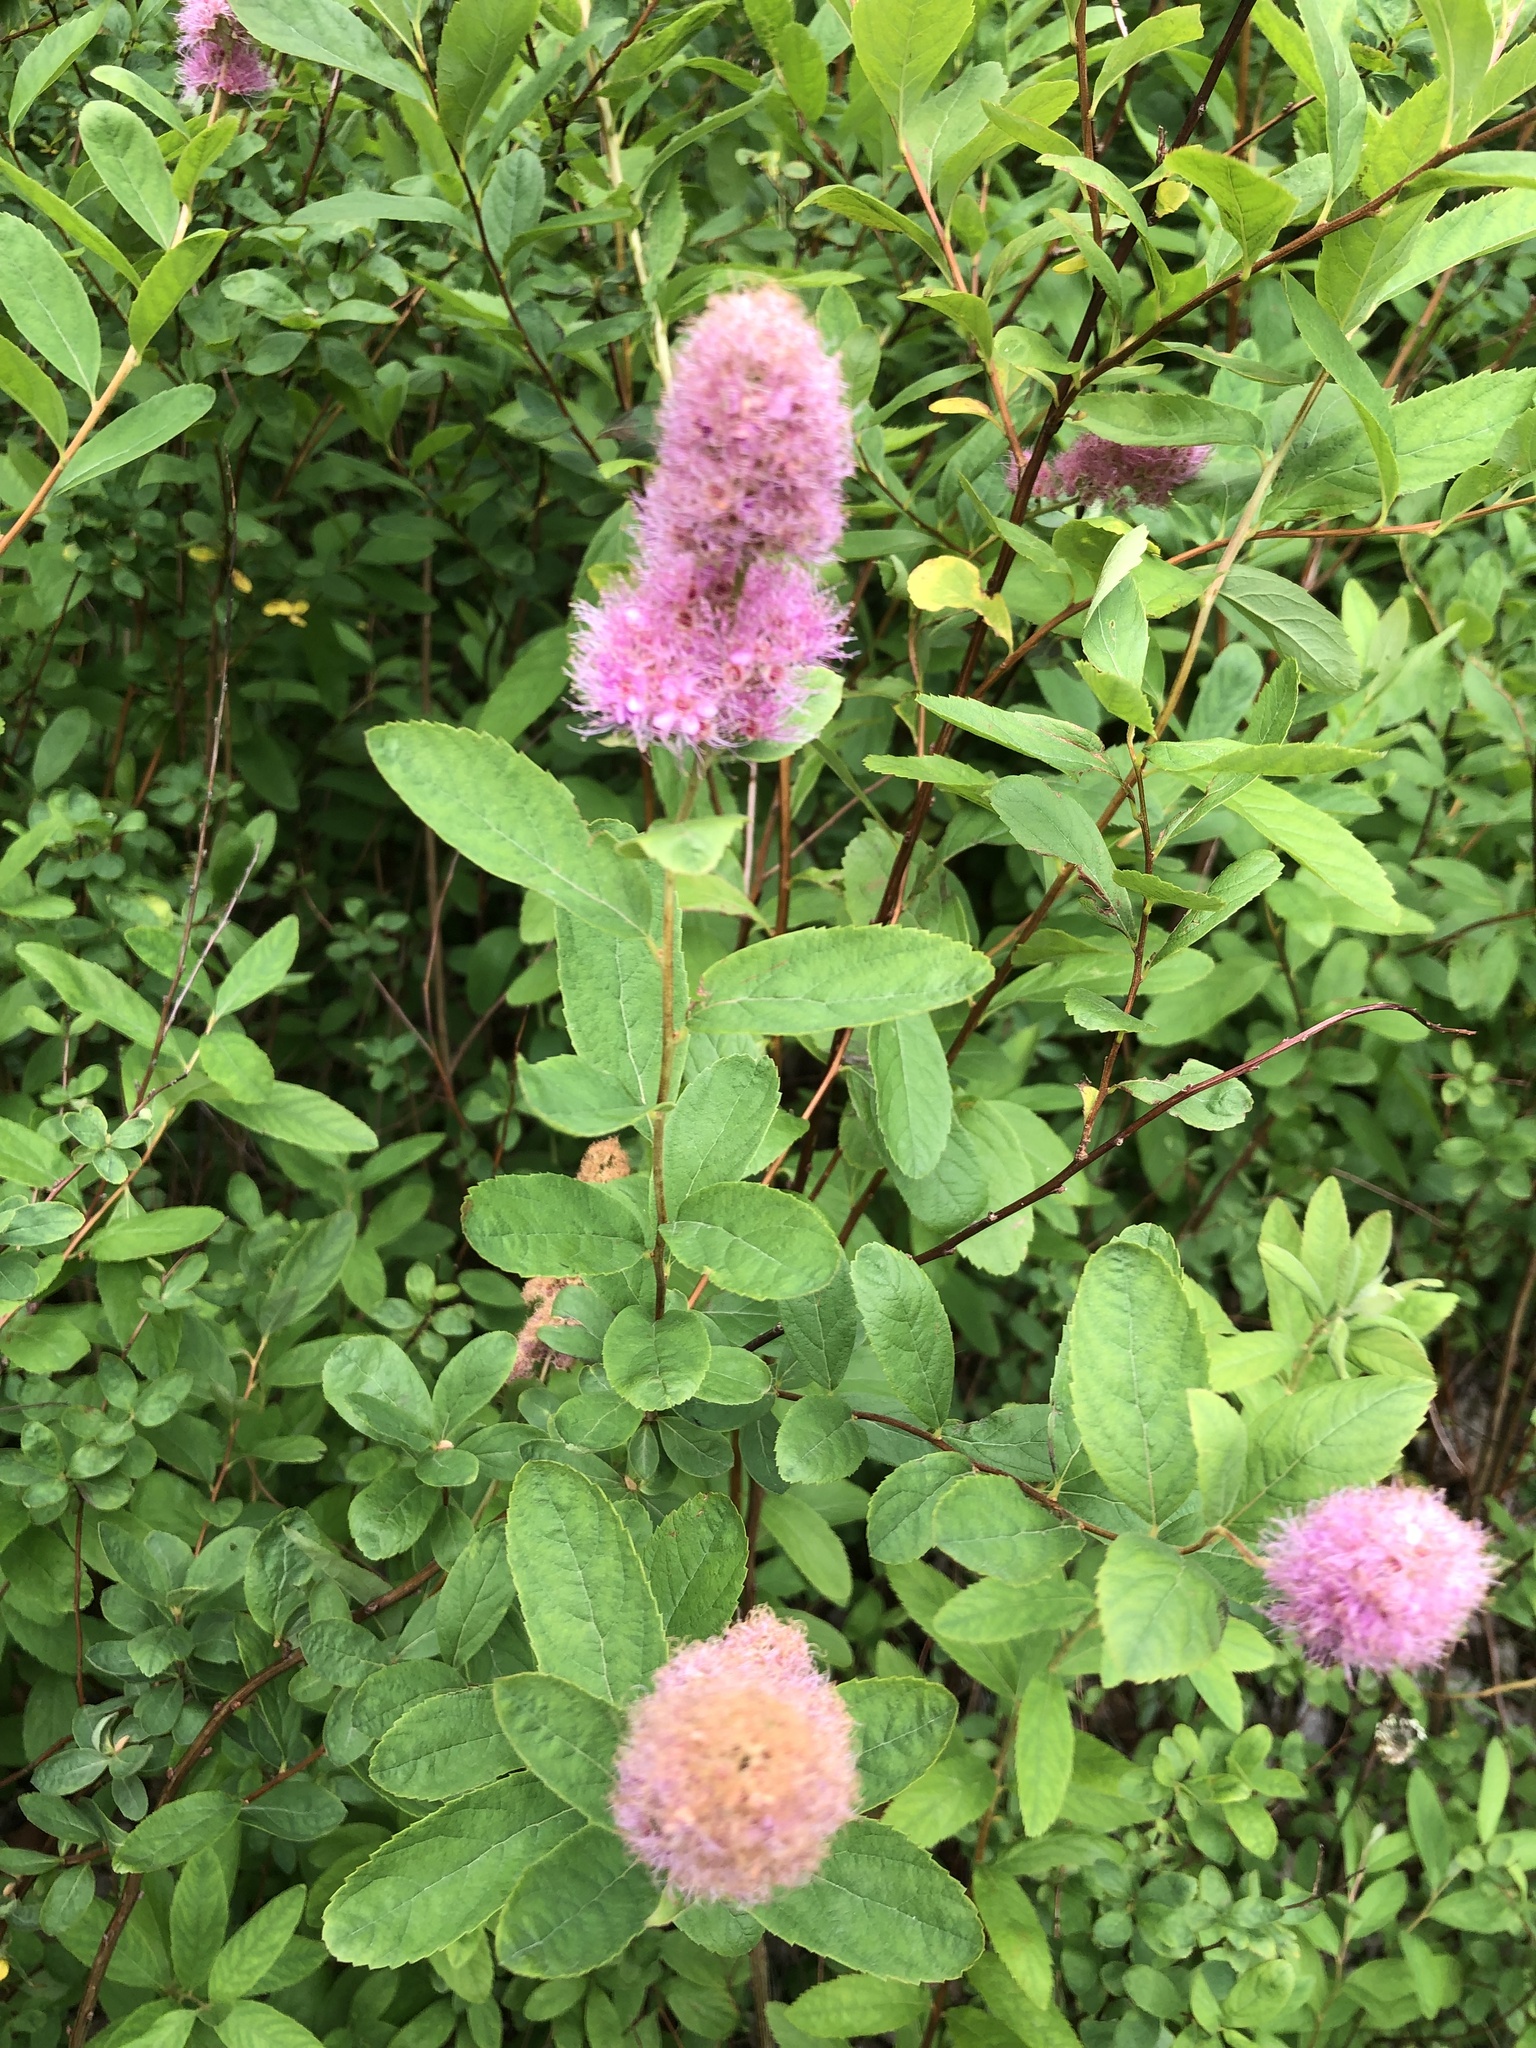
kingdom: Plantae
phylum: Tracheophyta
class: Magnoliopsida
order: Rosales
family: Rosaceae
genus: Spiraea
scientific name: Spiraea douglasii
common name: Steeplebush
